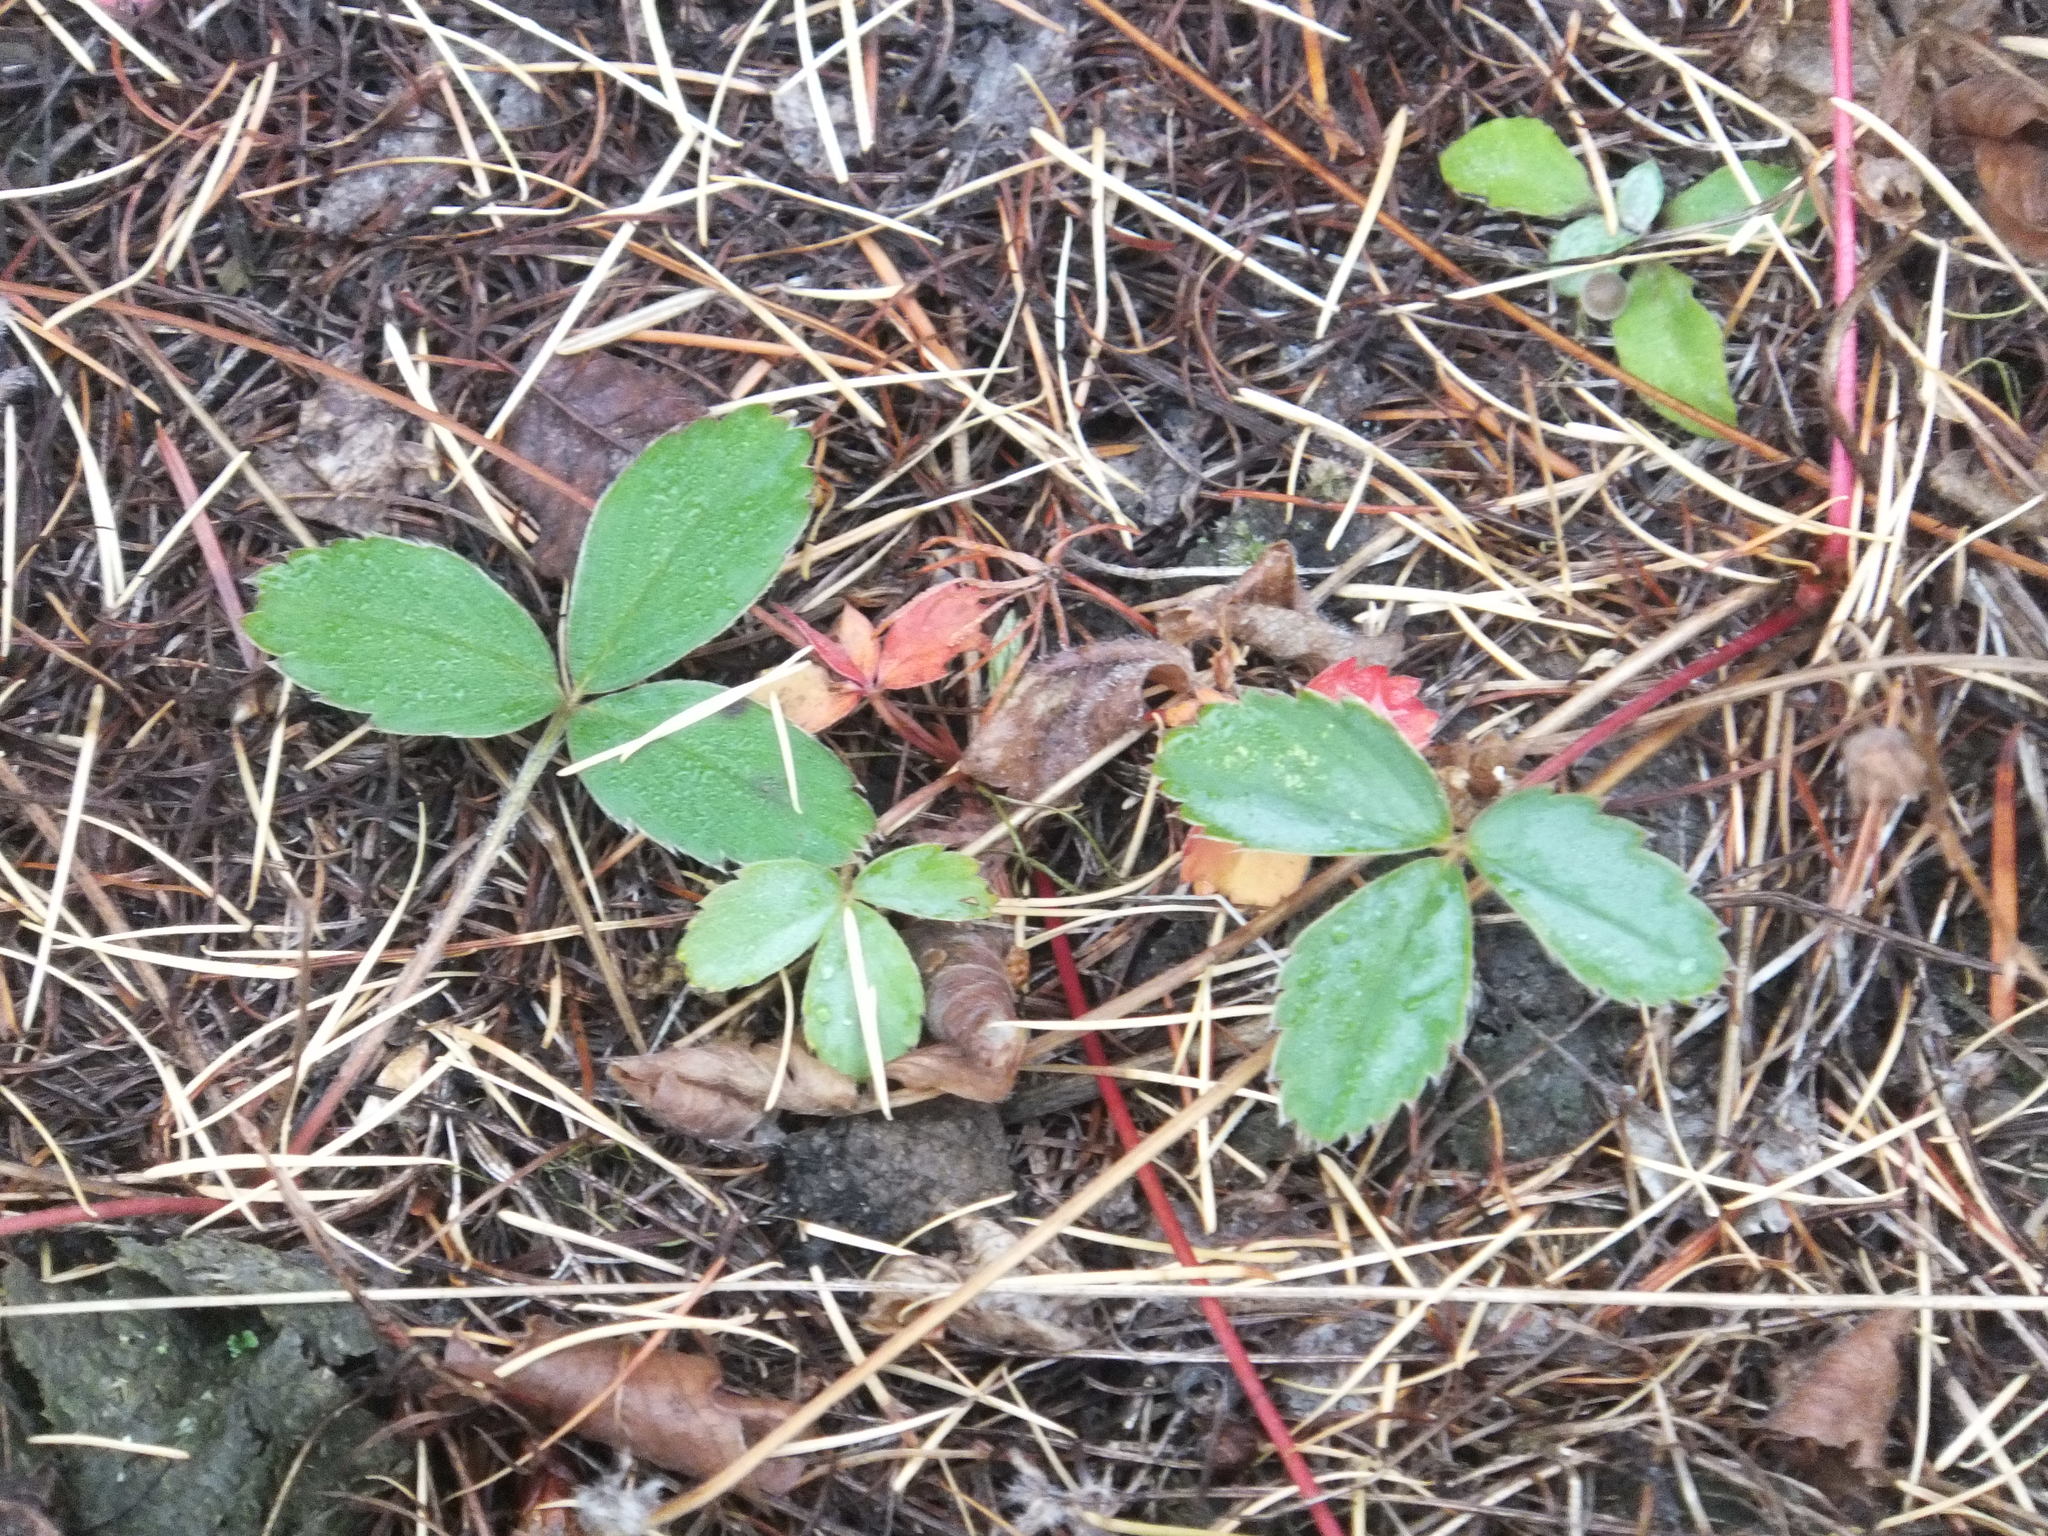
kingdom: Plantae
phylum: Tracheophyta
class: Magnoliopsida
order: Rosales
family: Rosaceae
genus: Fragaria
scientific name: Fragaria virginiana
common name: Thickleaved wild strawberry
